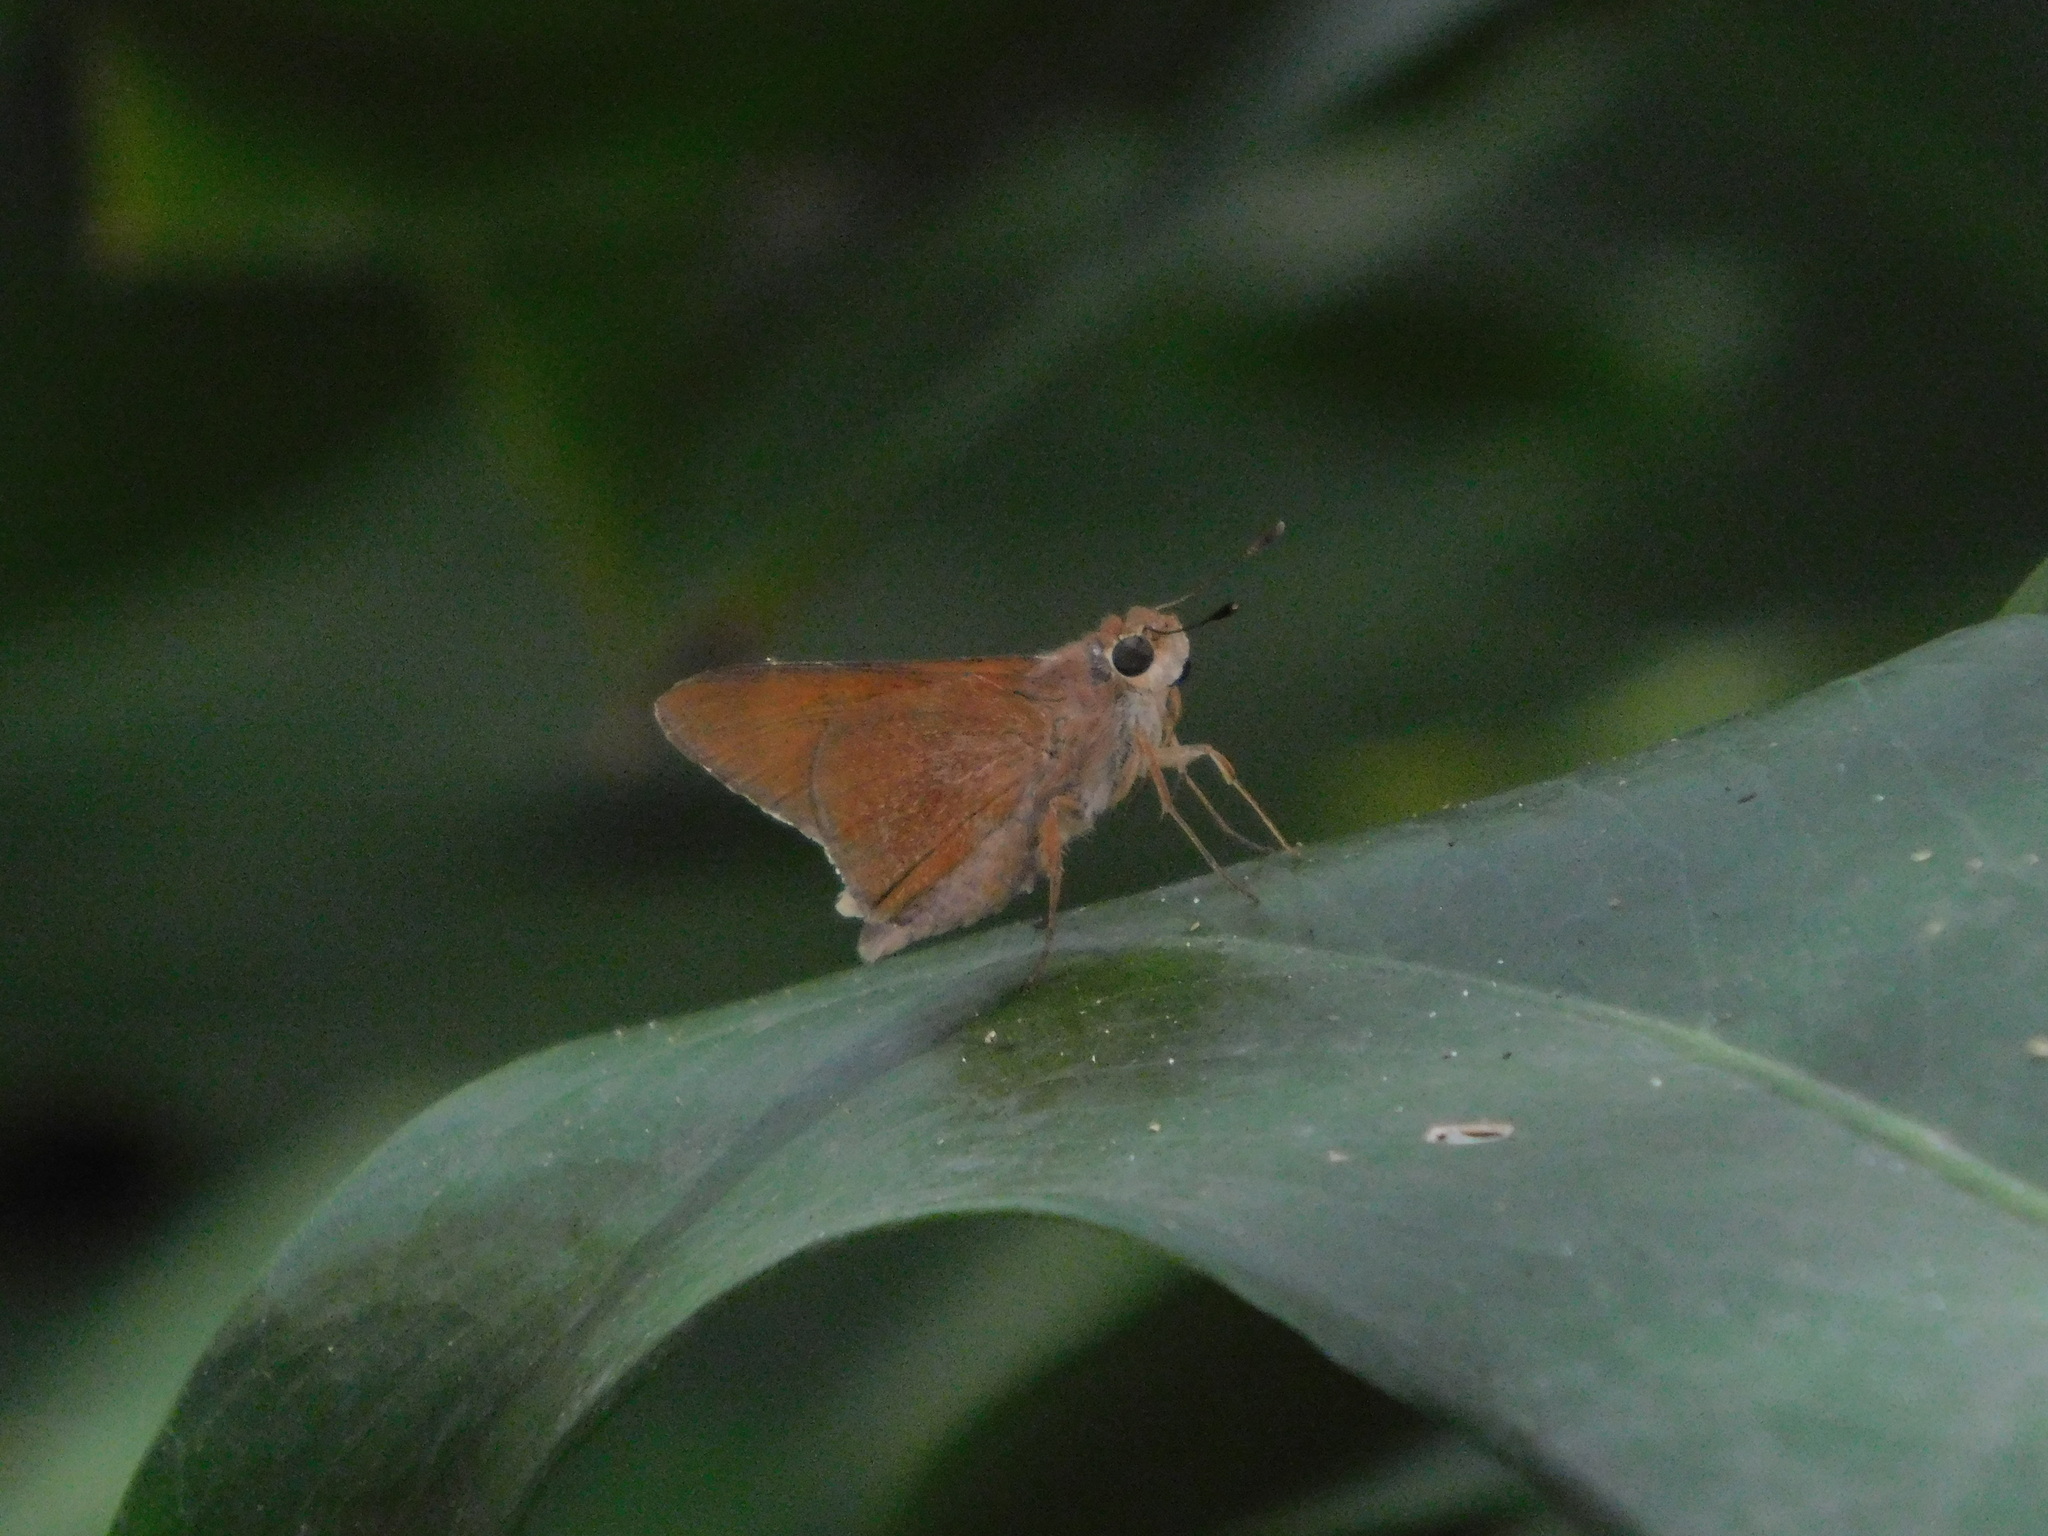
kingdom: Animalia
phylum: Arthropoda
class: Insecta
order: Lepidoptera
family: Hesperiidae
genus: Asbolis
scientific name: Asbolis capucinus
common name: Monk skipper
